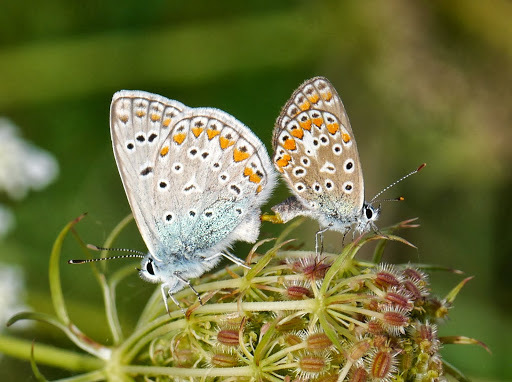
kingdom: Animalia
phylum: Arthropoda
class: Insecta
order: Lepidoptera
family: Lycaenidae
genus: Polyommatus
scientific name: Polyommatus icarus
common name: Common blue
